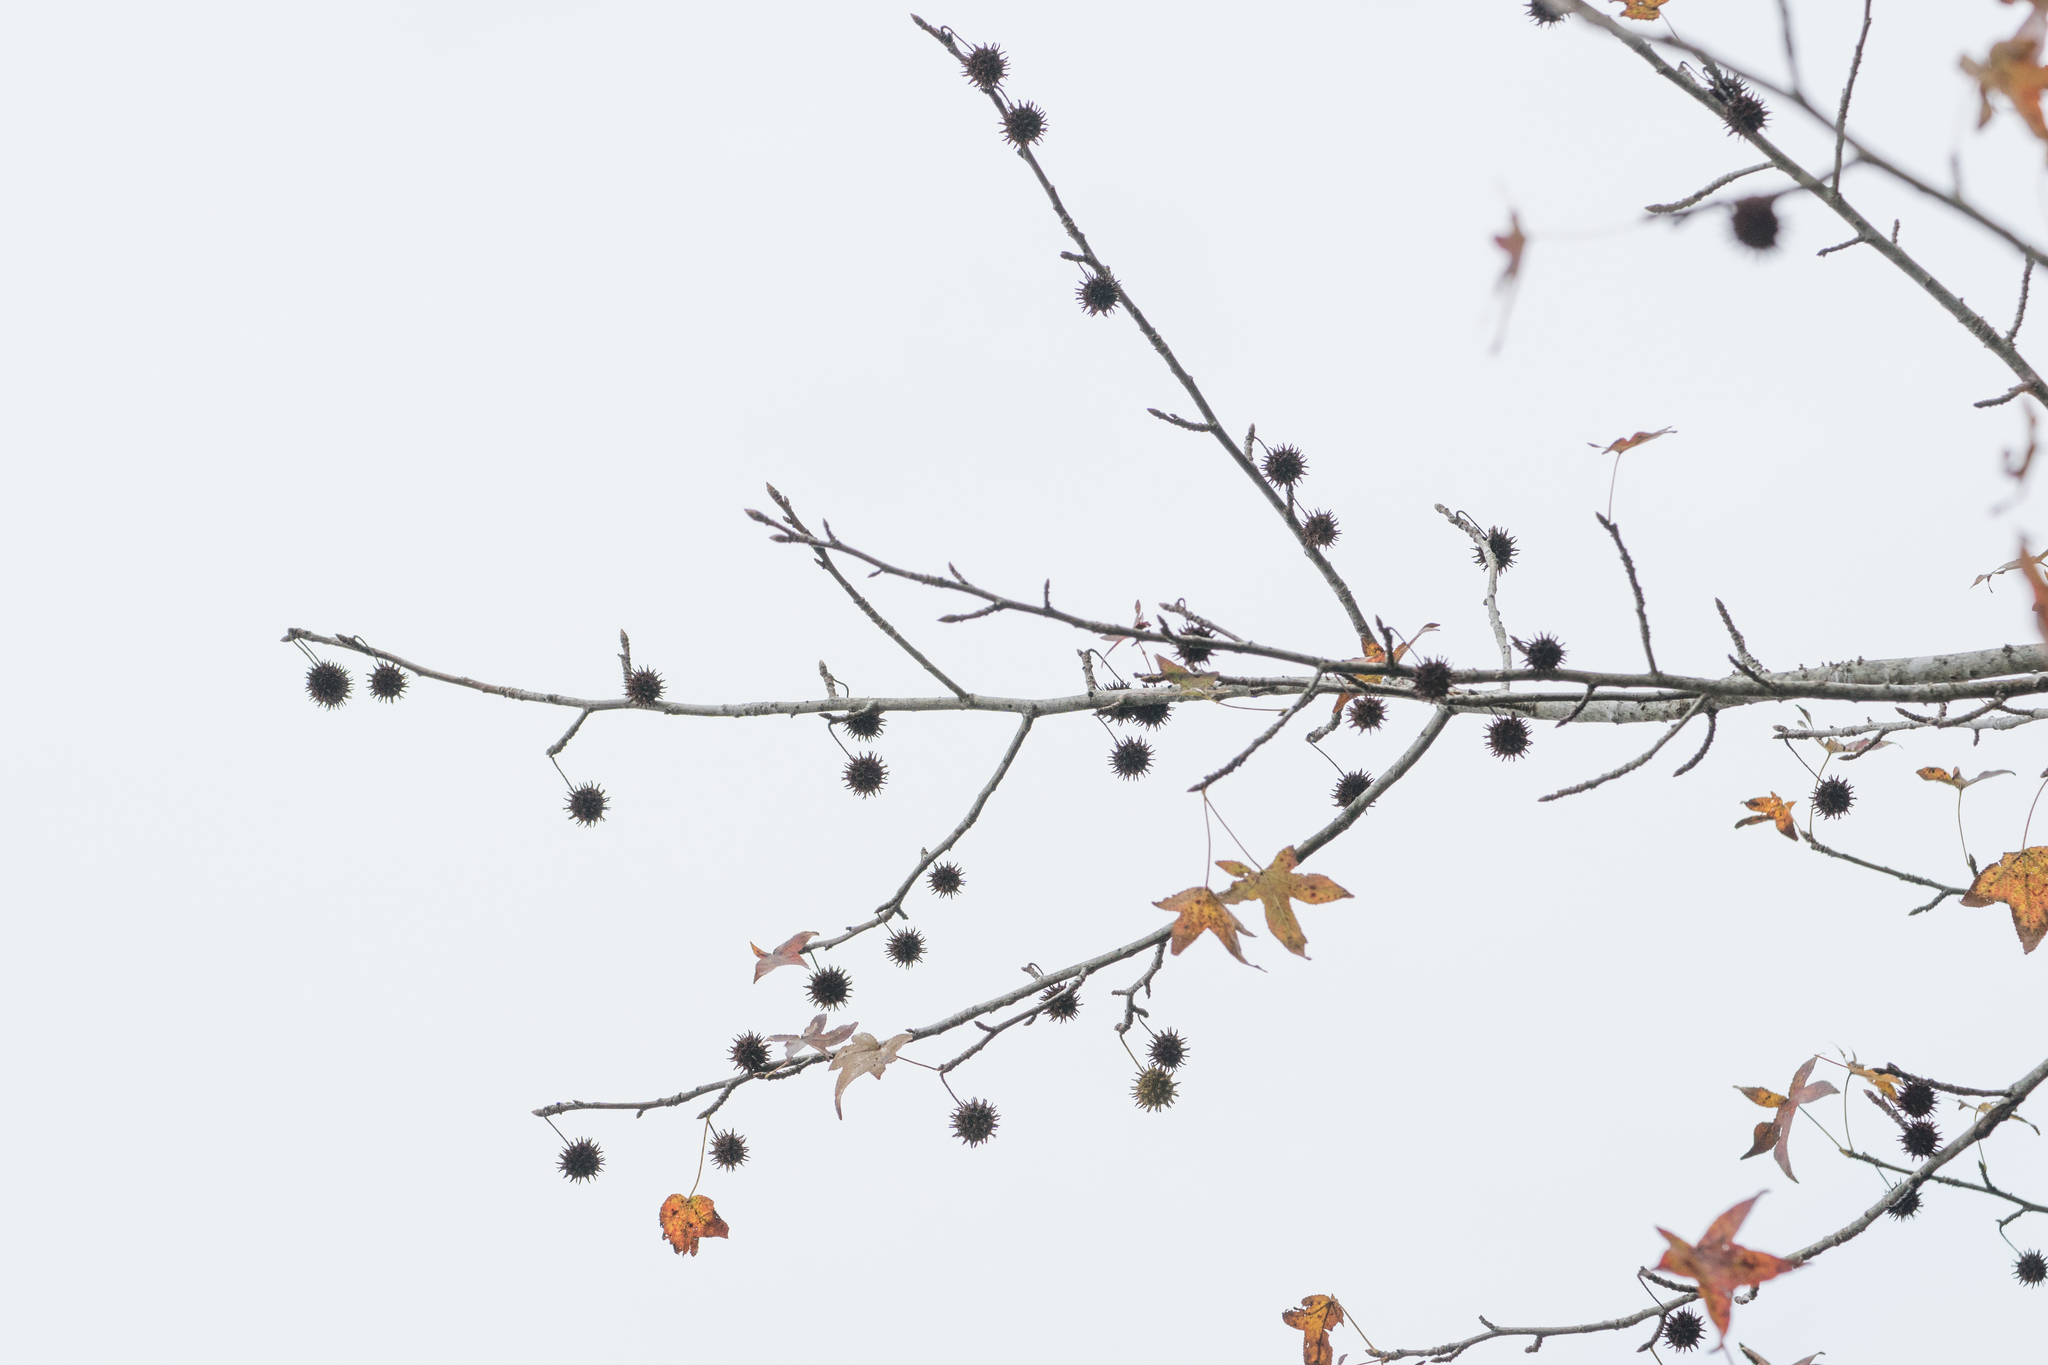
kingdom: Plantae
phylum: Tracheophyta
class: Magnoliopsida
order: Saxifragales
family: Altingiaceae
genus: Liquidambar
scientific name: Liquidambar styraciflua
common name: Sweet gum
